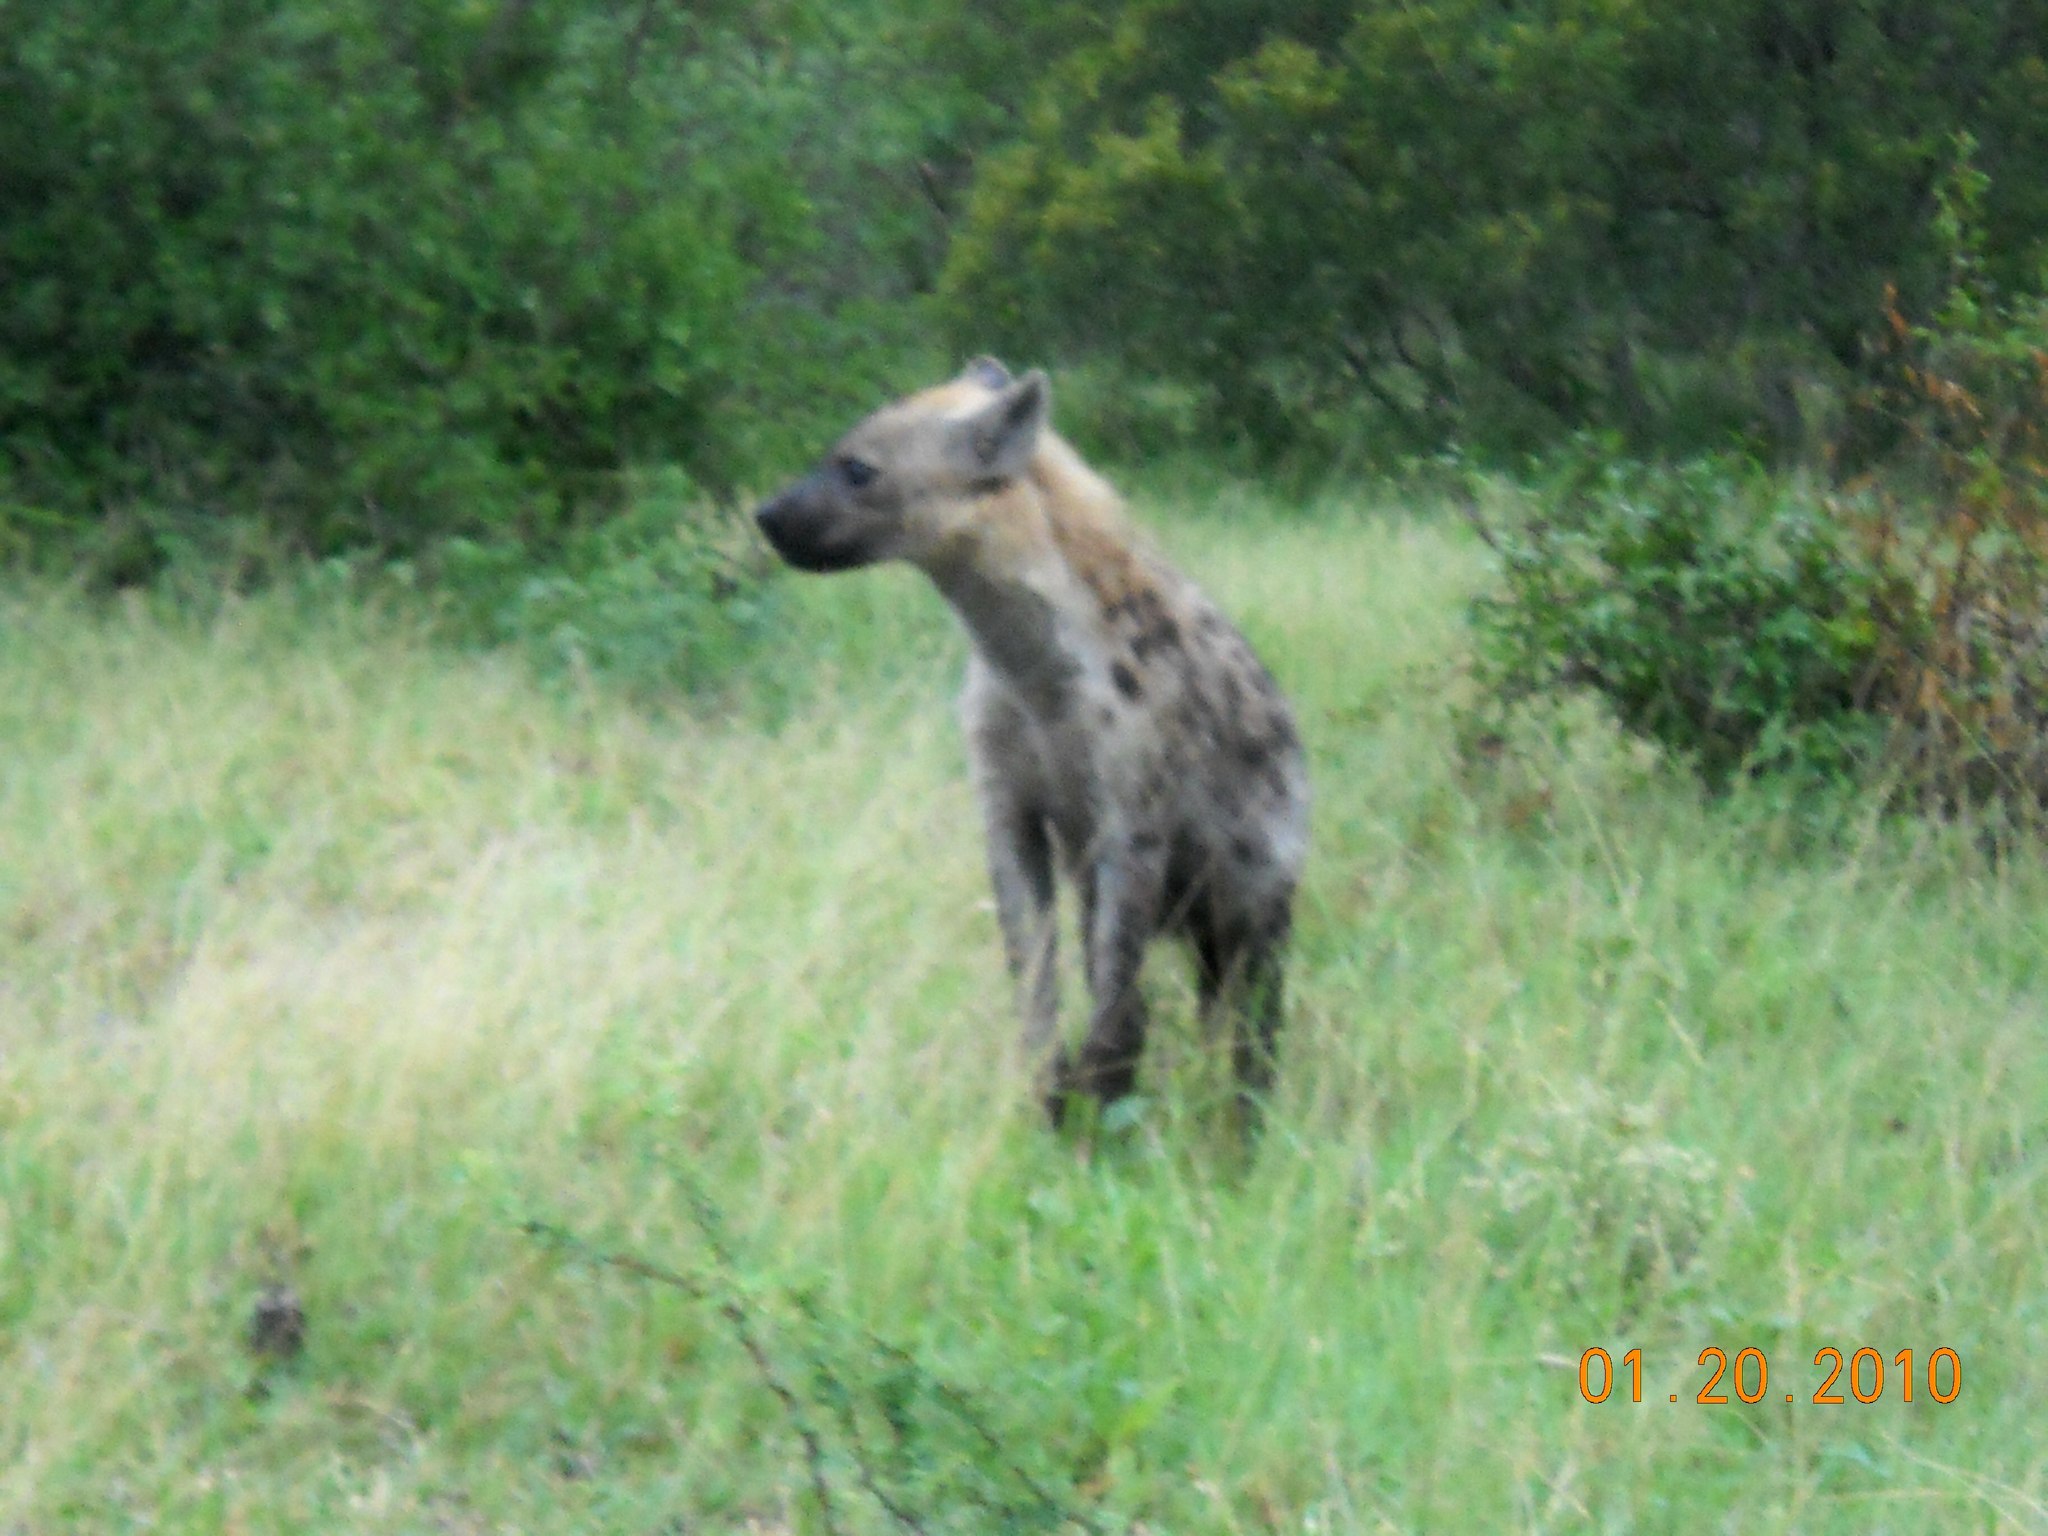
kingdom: Animalia
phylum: Chordata
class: Mammalia
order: Carnivora
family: Hyaenidae
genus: Crocuta
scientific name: Crocuta crocuta
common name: Spotted hyaena
